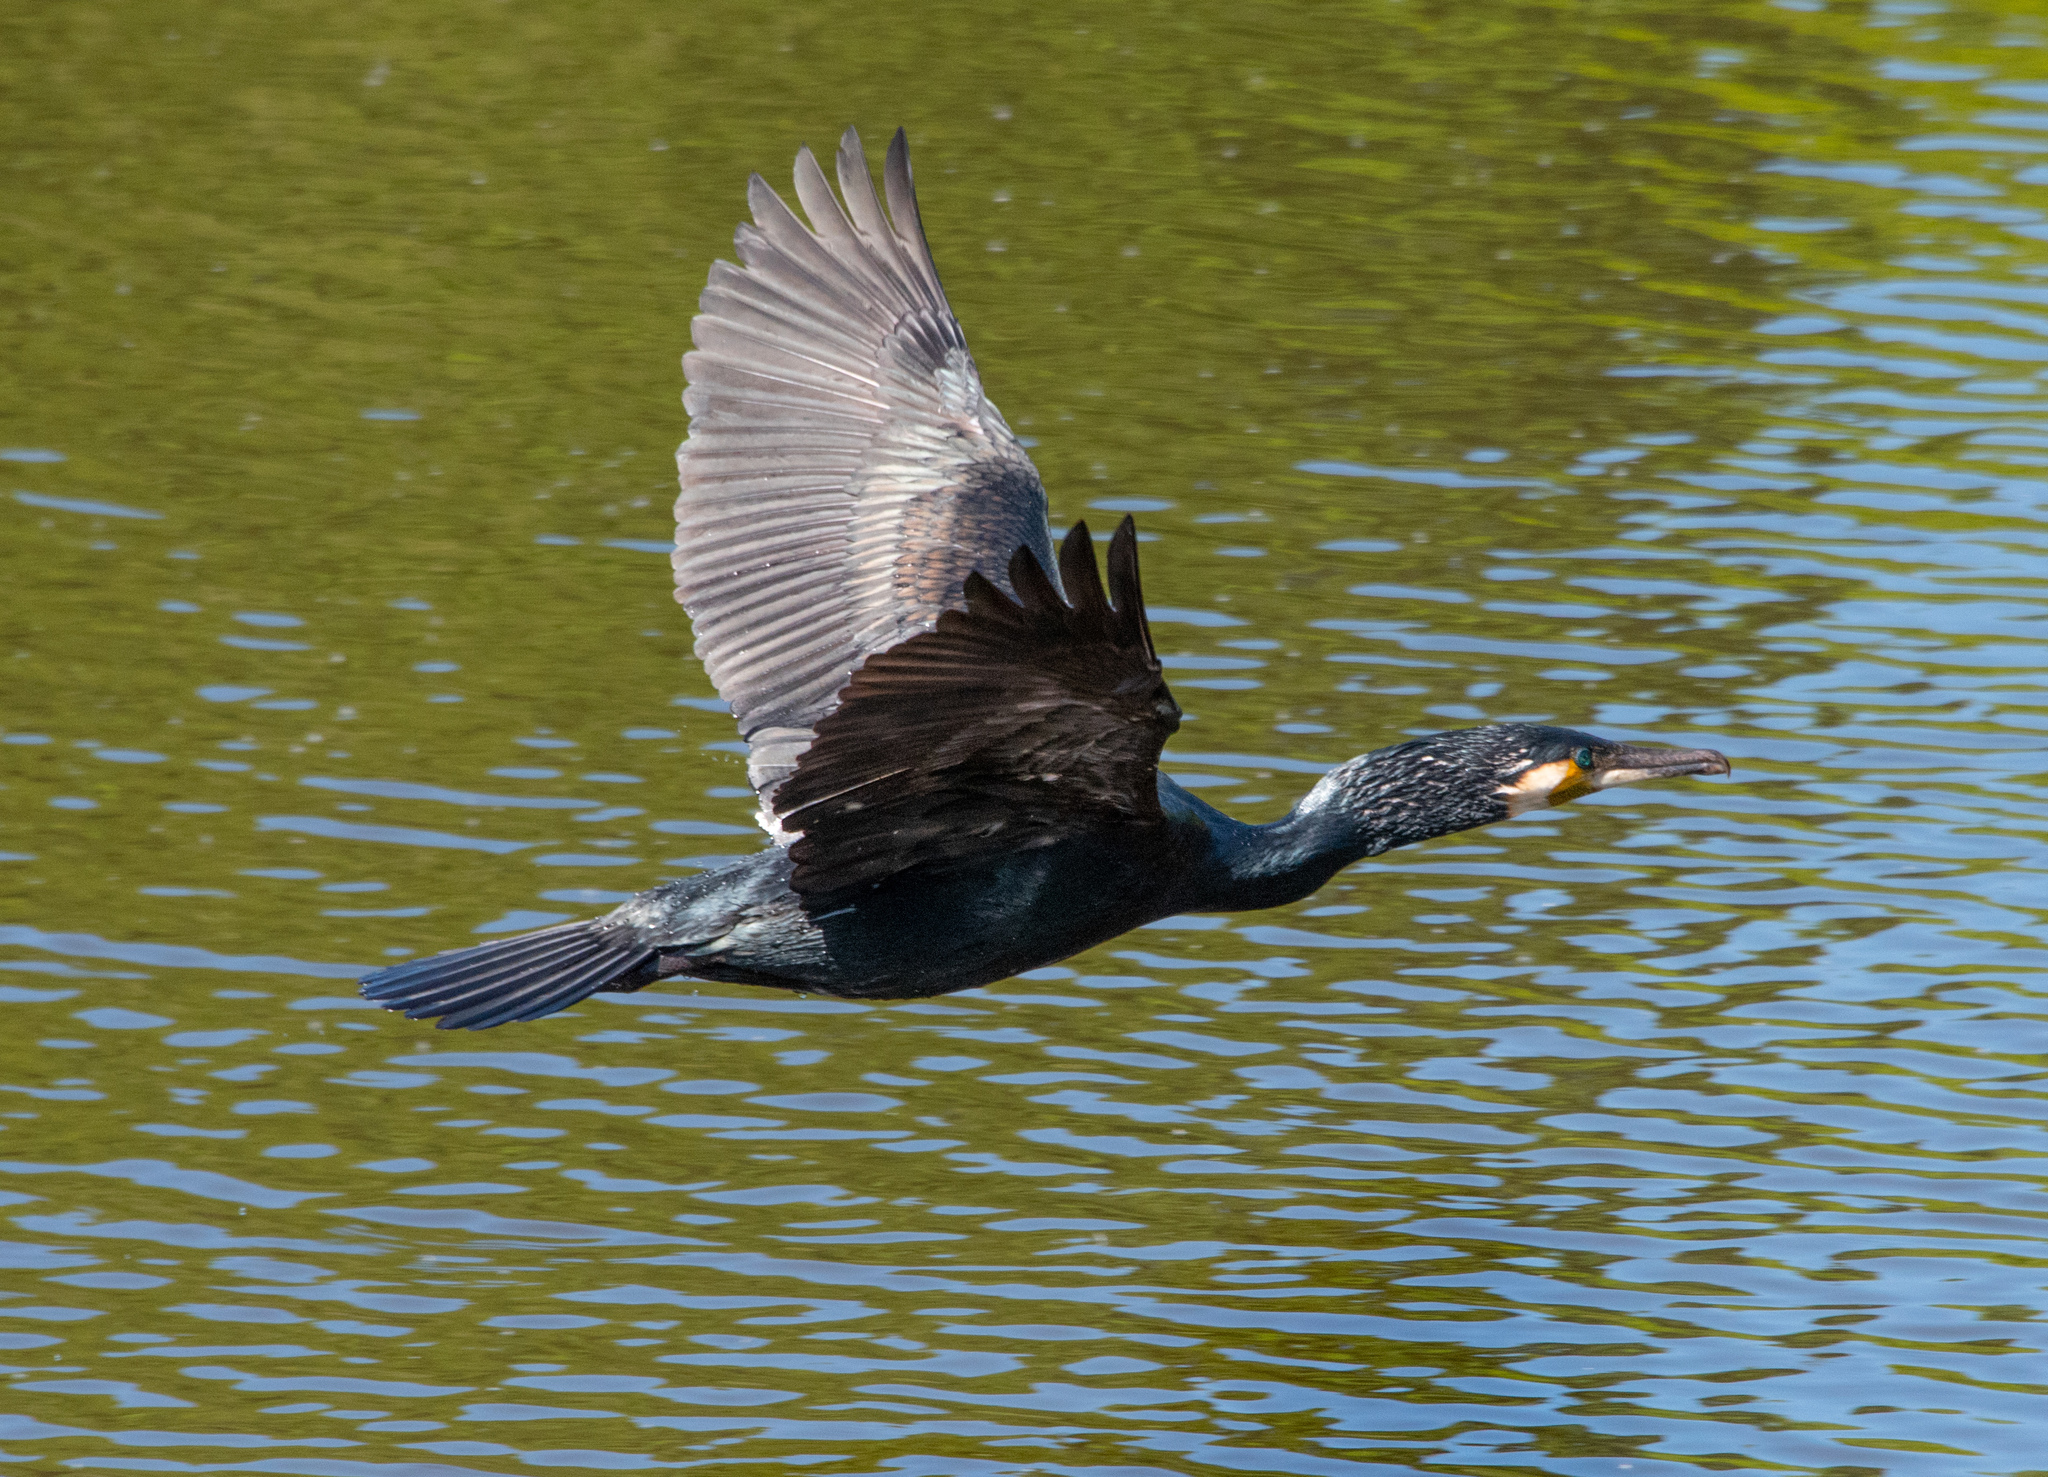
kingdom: Animalia
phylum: Chordata
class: Aves
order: Suliformes
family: Phalacrocoracidae
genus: Phalacrocorax
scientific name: Phalacrocorax carbo
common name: Great cormorant
